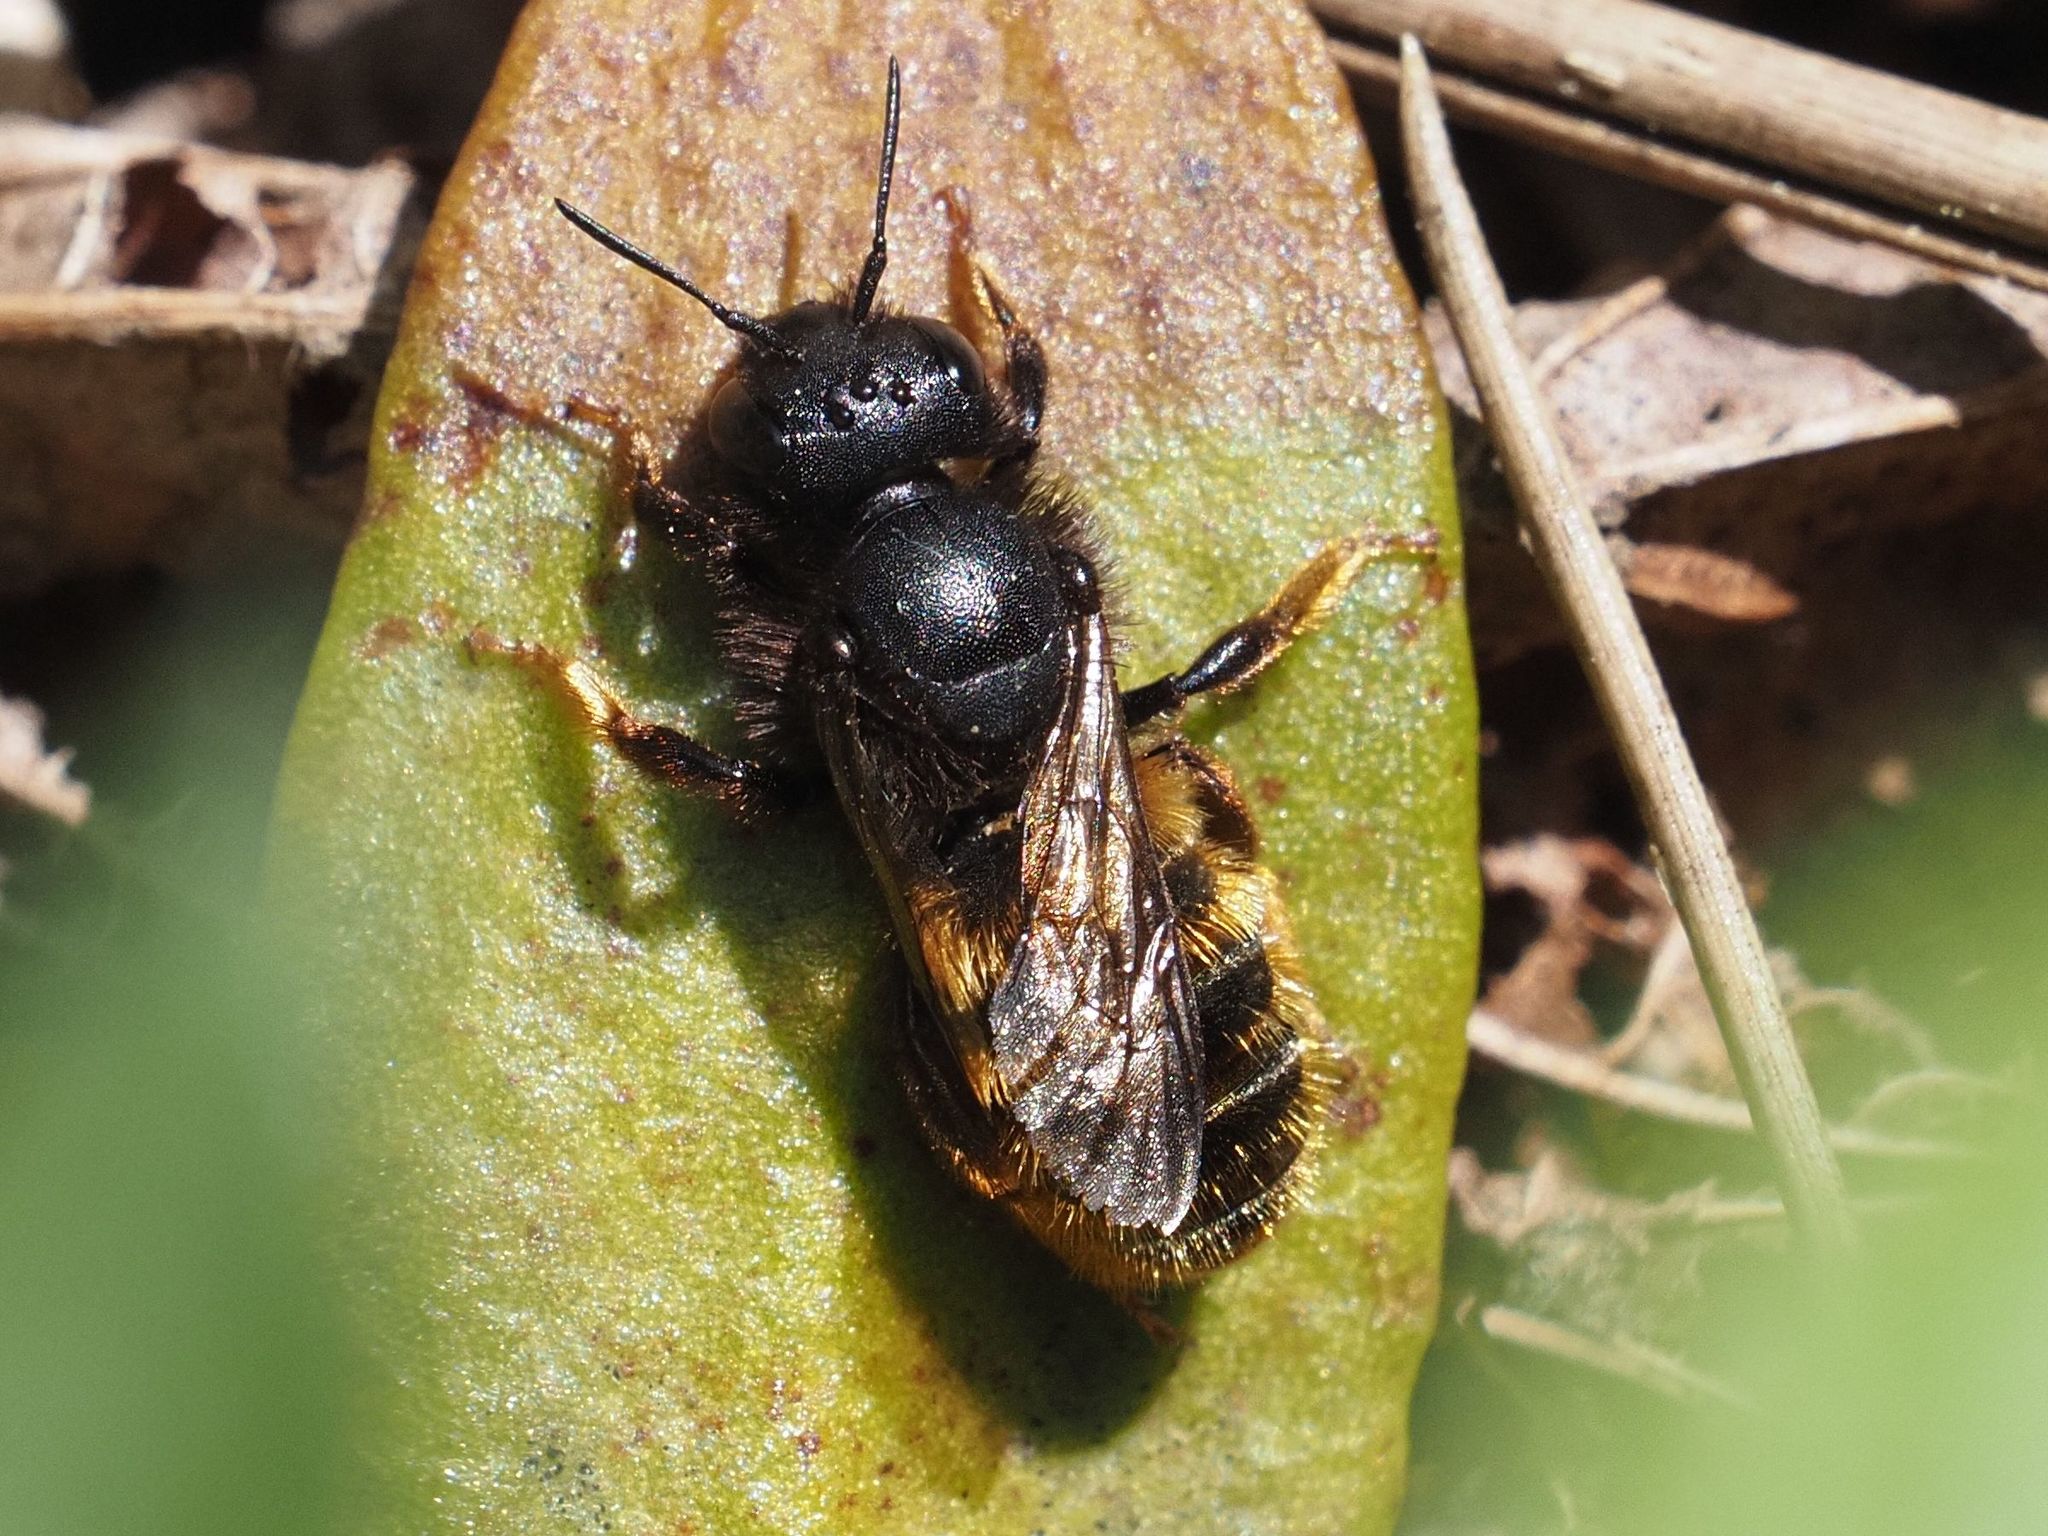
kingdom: Animalia
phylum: Arthropoda
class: Insecta
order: Hymenoptera
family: Megachilidae
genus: Osmia
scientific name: Osmia bicolor
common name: Red-tailed mason bee
